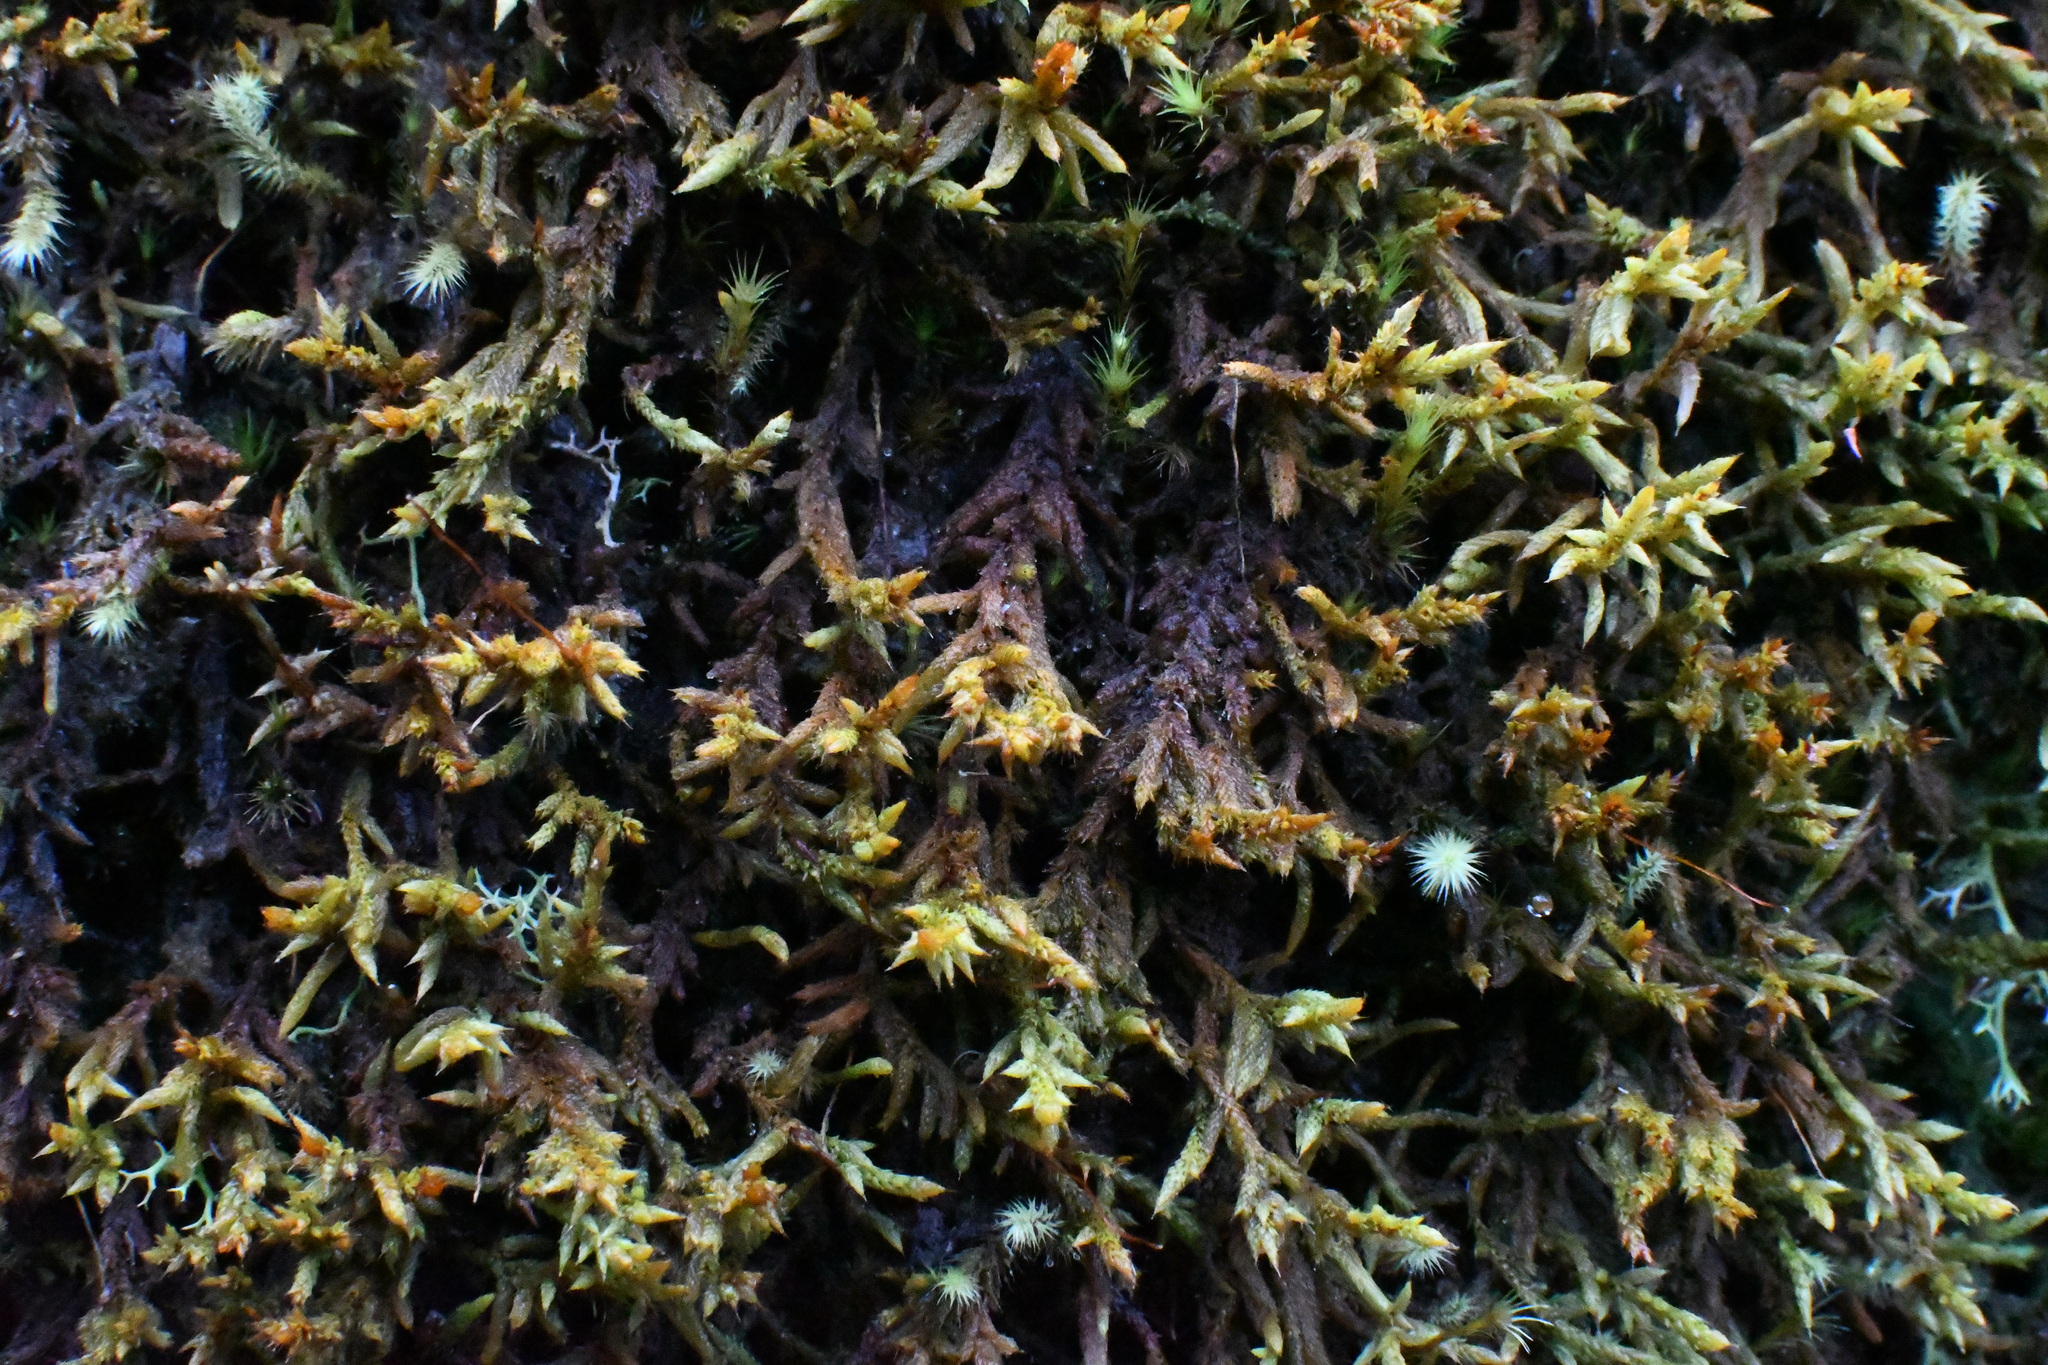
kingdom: Plantae
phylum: Bryophyta
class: Bryopsida
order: Hedwigiales
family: Hedwigiaceae
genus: Rhacocarpus
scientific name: Rhacocarpus purpurascens
